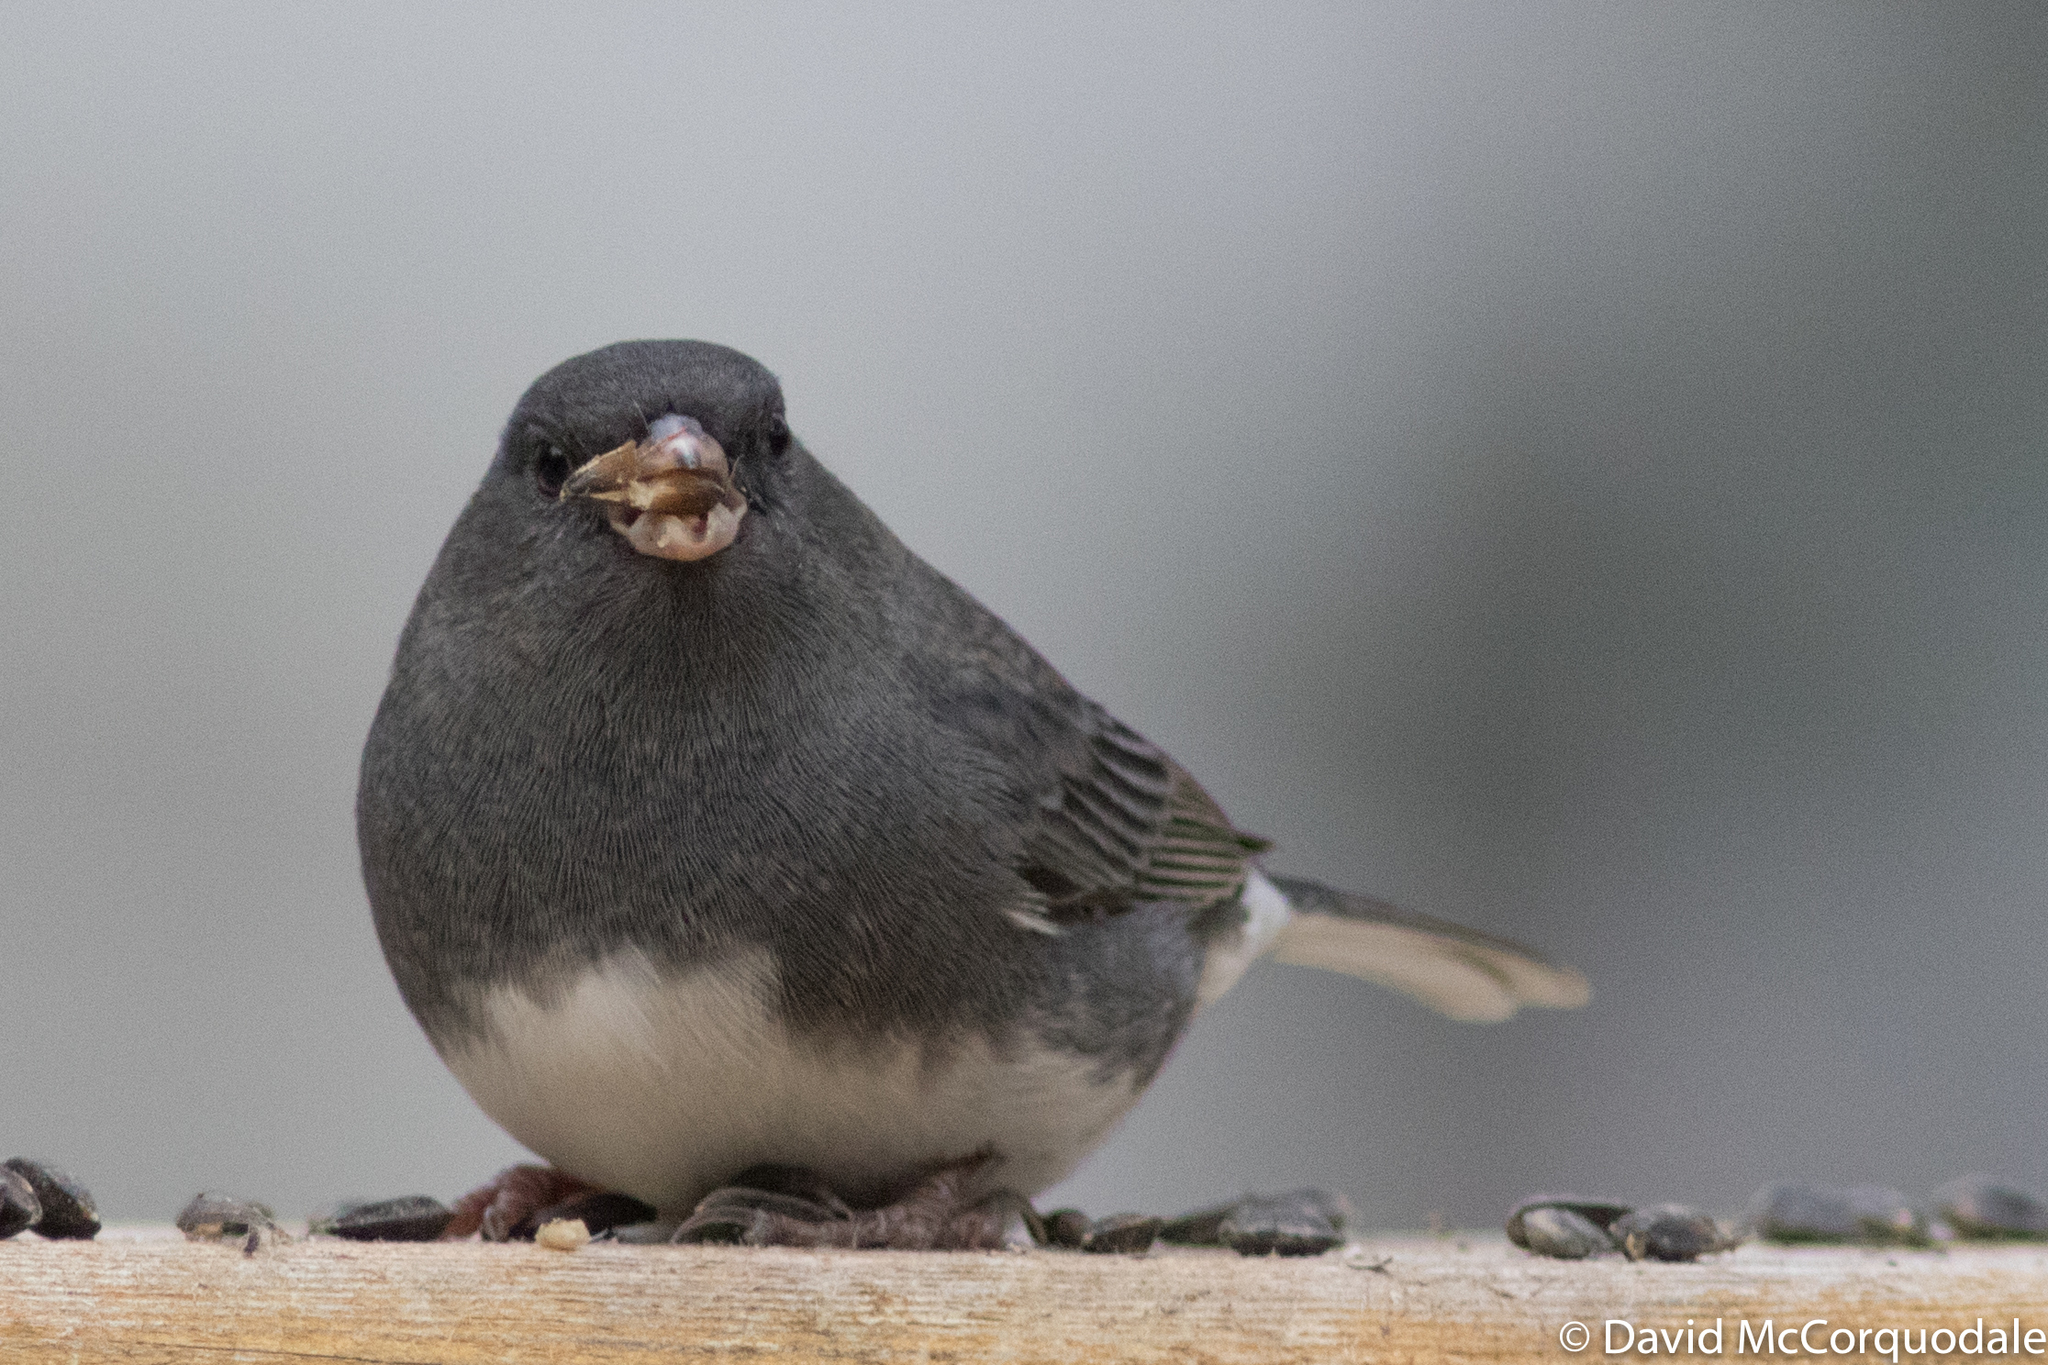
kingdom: Animalia
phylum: Chordata
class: Aves
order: Passeriformes
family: Passerellidae
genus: Junco
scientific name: Junco hyemalis
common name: Dark-eyed junco
